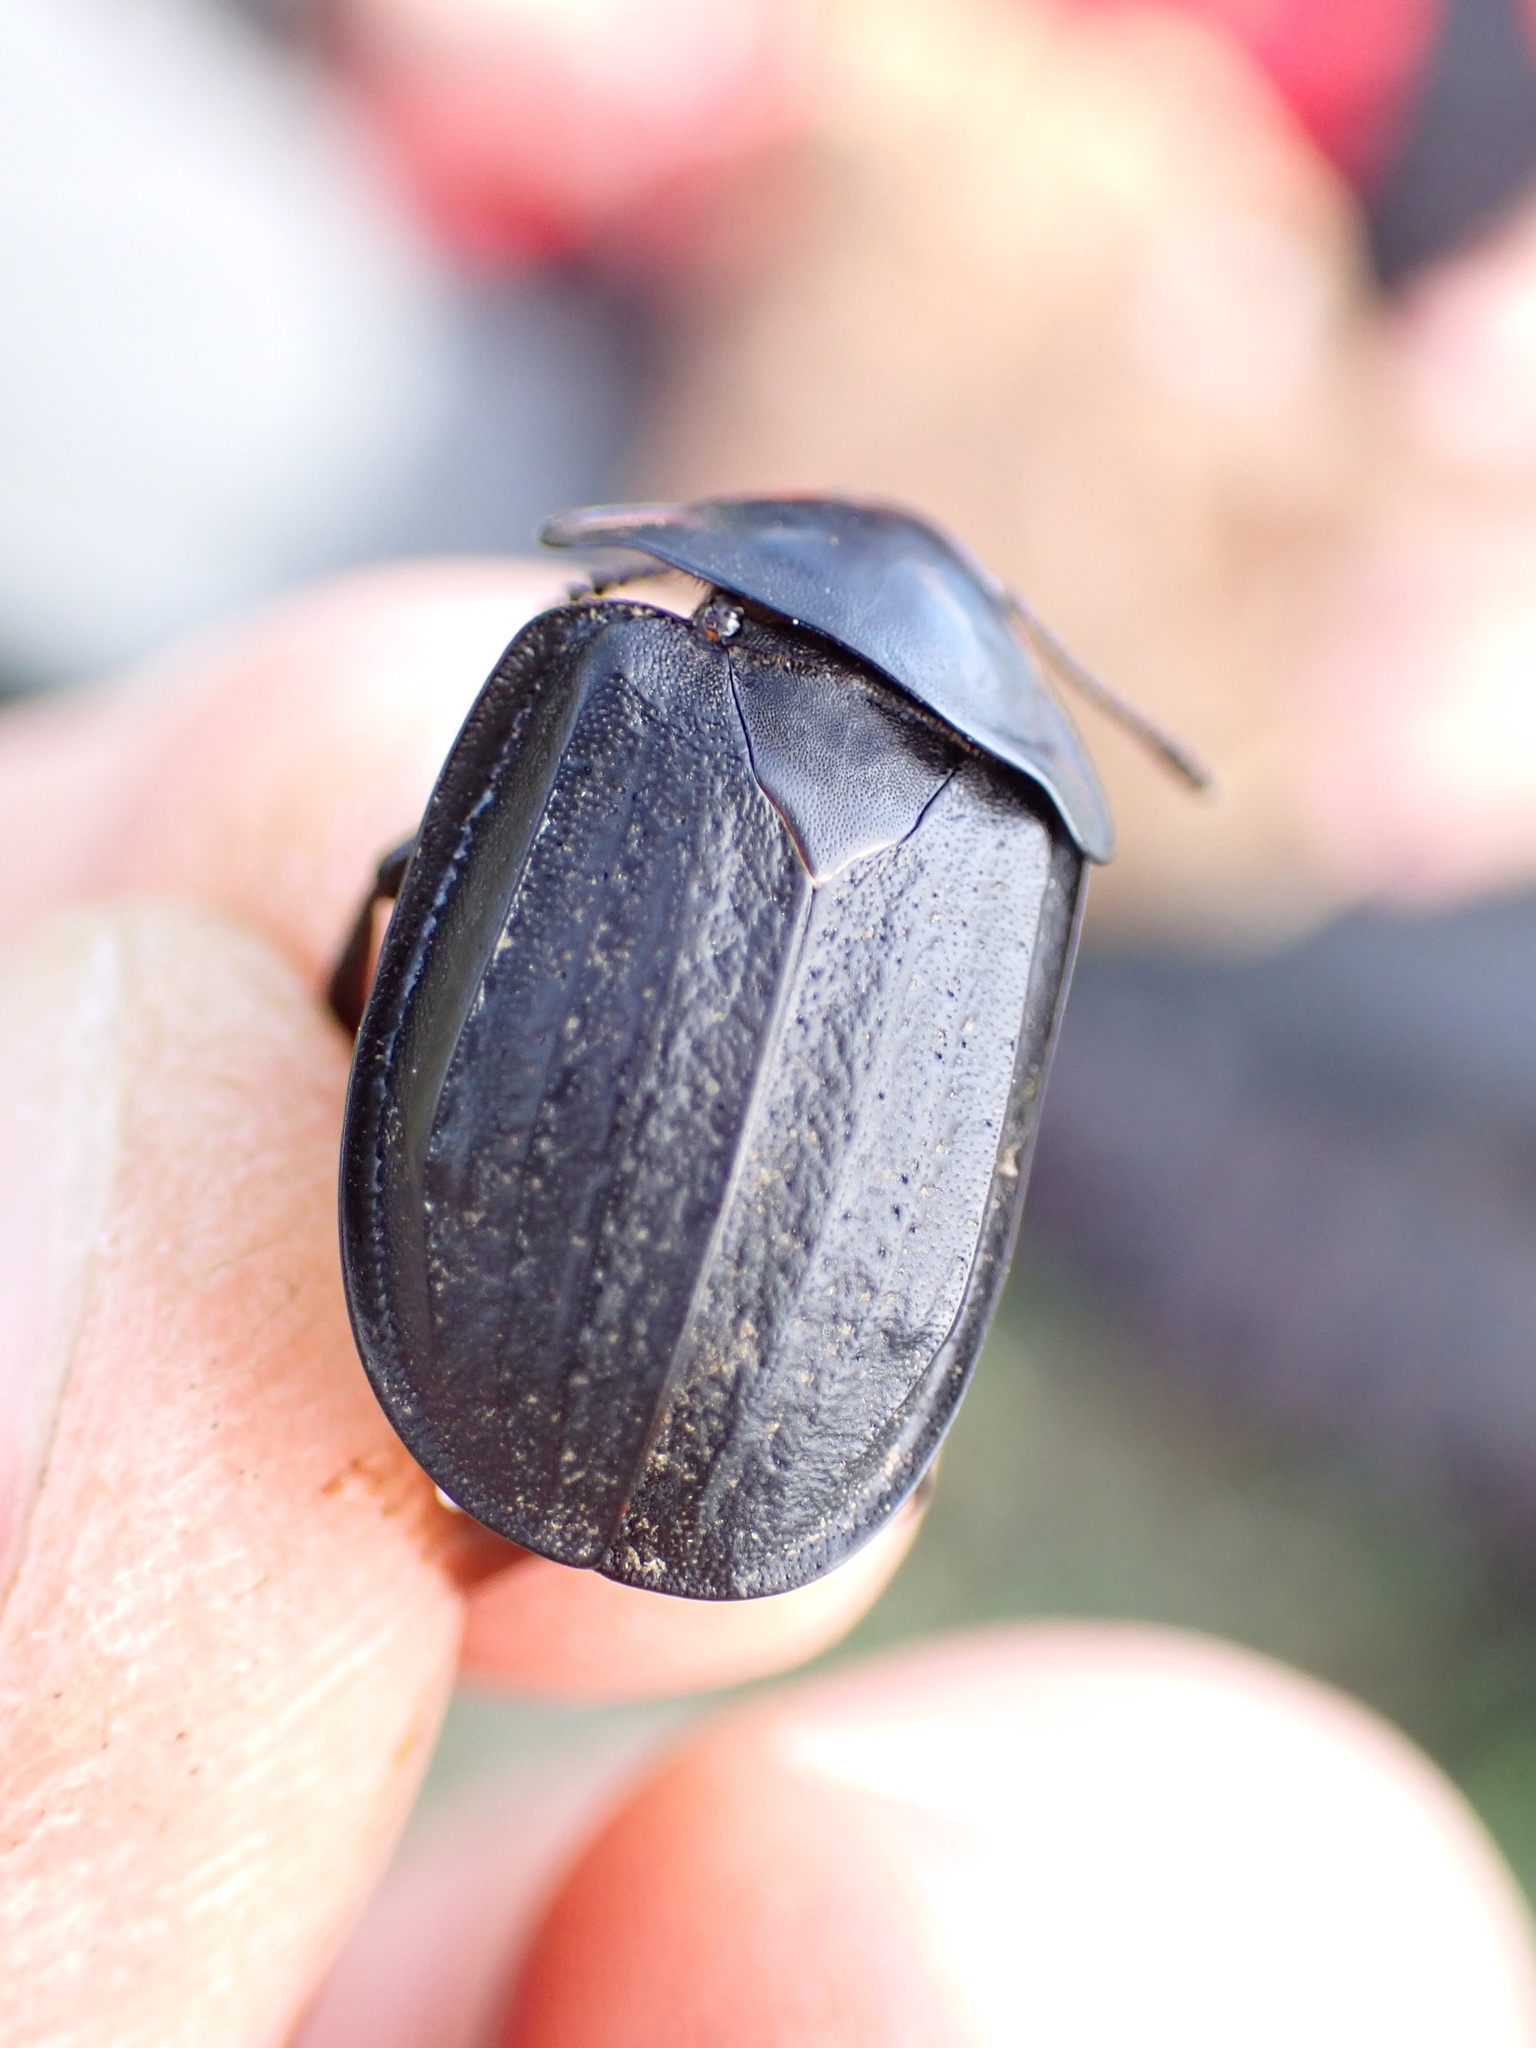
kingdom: Animalia
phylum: Arthropoda
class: Insecta
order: Coleoptera
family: Staphylinidae
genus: Silpha
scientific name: Silpha olivieri
